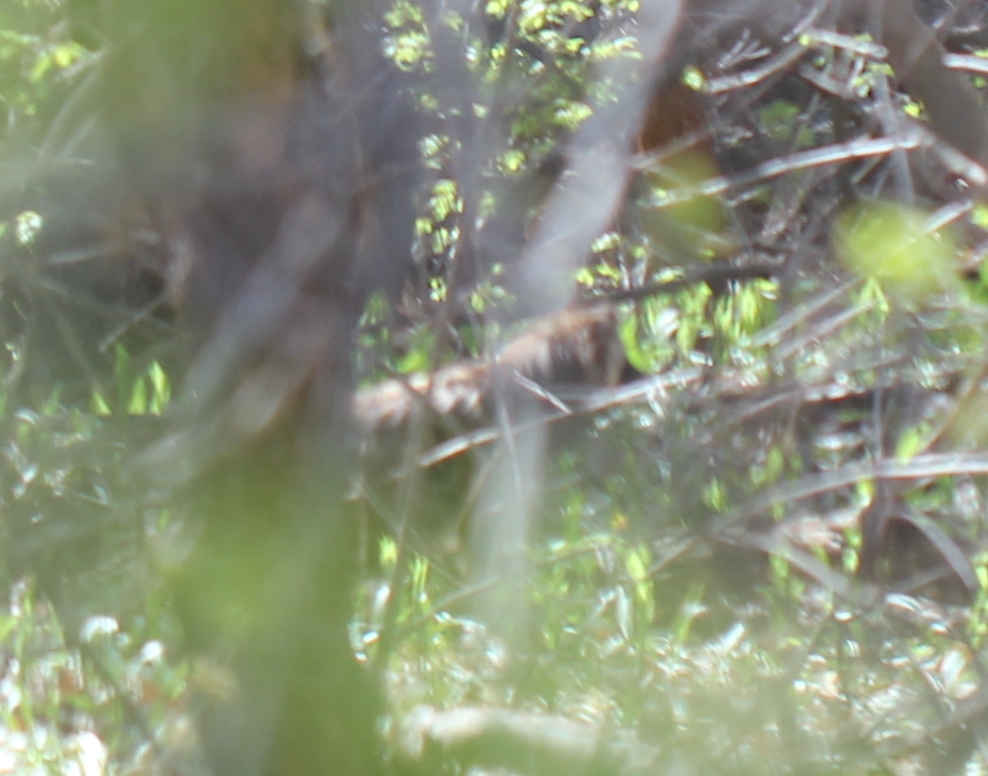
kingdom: Animalia
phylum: Chordata
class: Mammalia
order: Carnivora
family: Canidae
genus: Nyctereutes
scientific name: Nyctereutes procyonoides
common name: Raccoon dog
